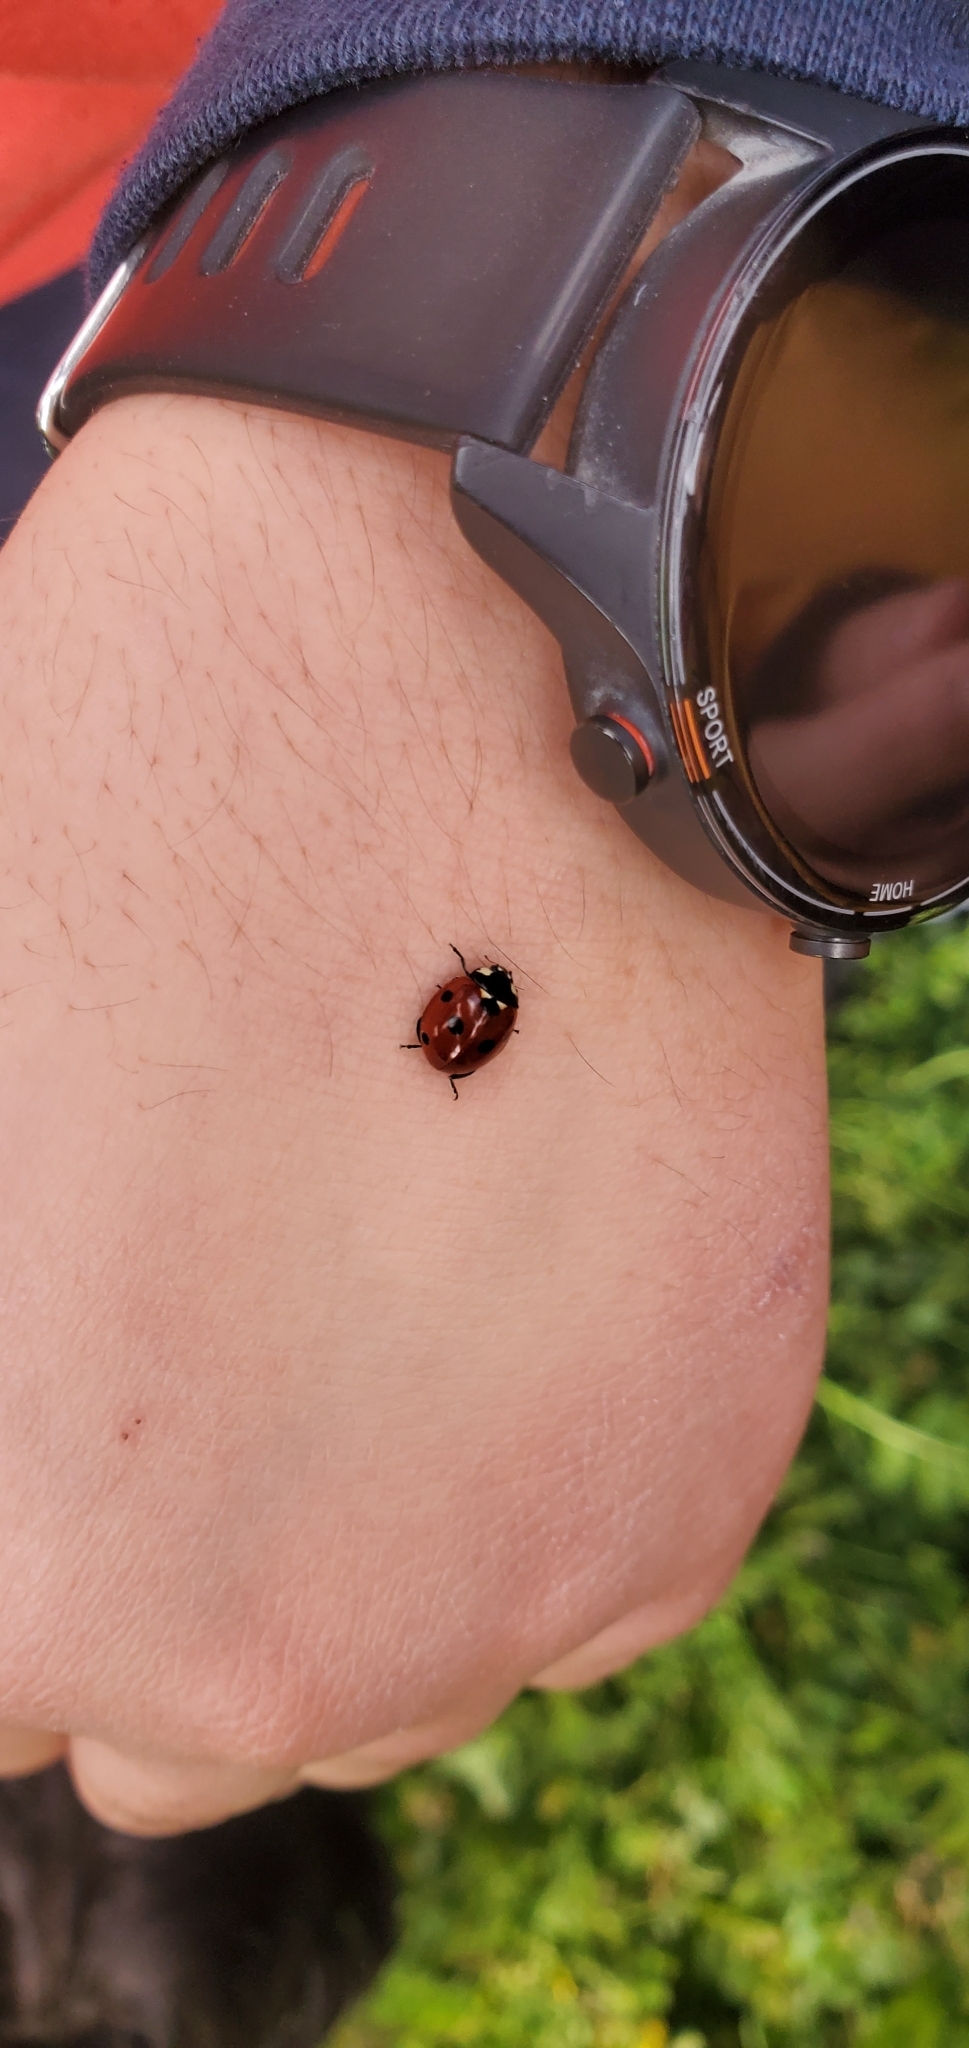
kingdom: Animalia
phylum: Arthropoda
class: Insecta
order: Coleoptera
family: Coccinellidae
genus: Coccinella
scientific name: Coccinella septempunctata
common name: Sevenspotted lady beetle
